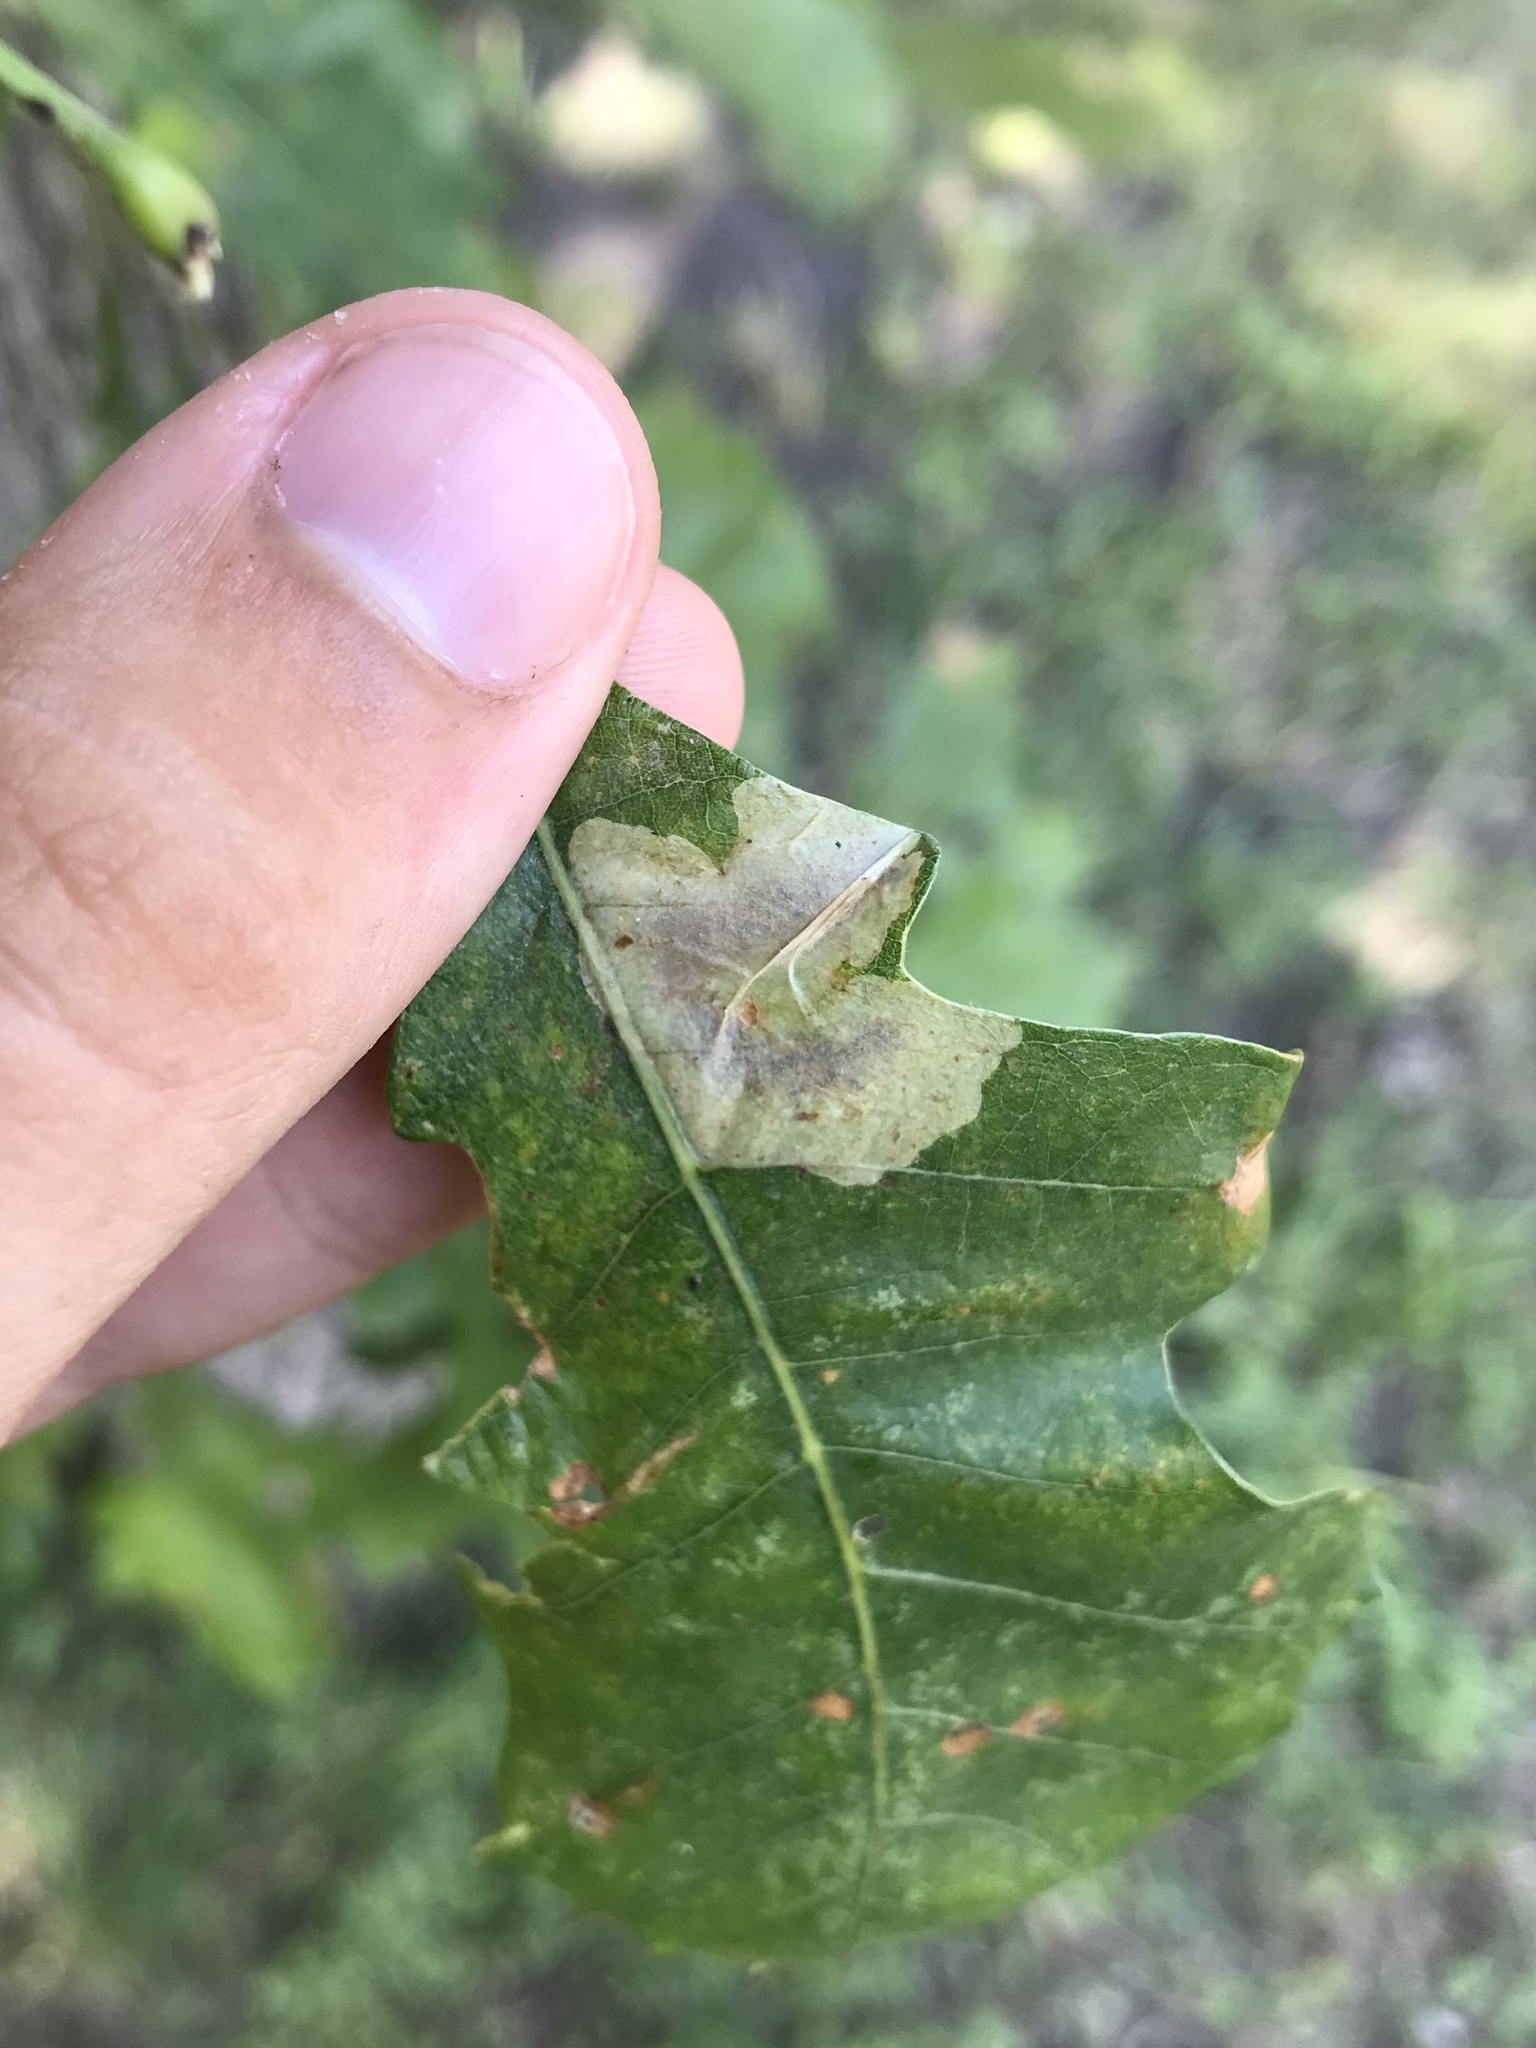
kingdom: Animalia
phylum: Arthropoda
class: Insecta
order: Lepidoptera
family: Gracillariidae
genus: Cameraria
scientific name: Cameraria macrocarpella
